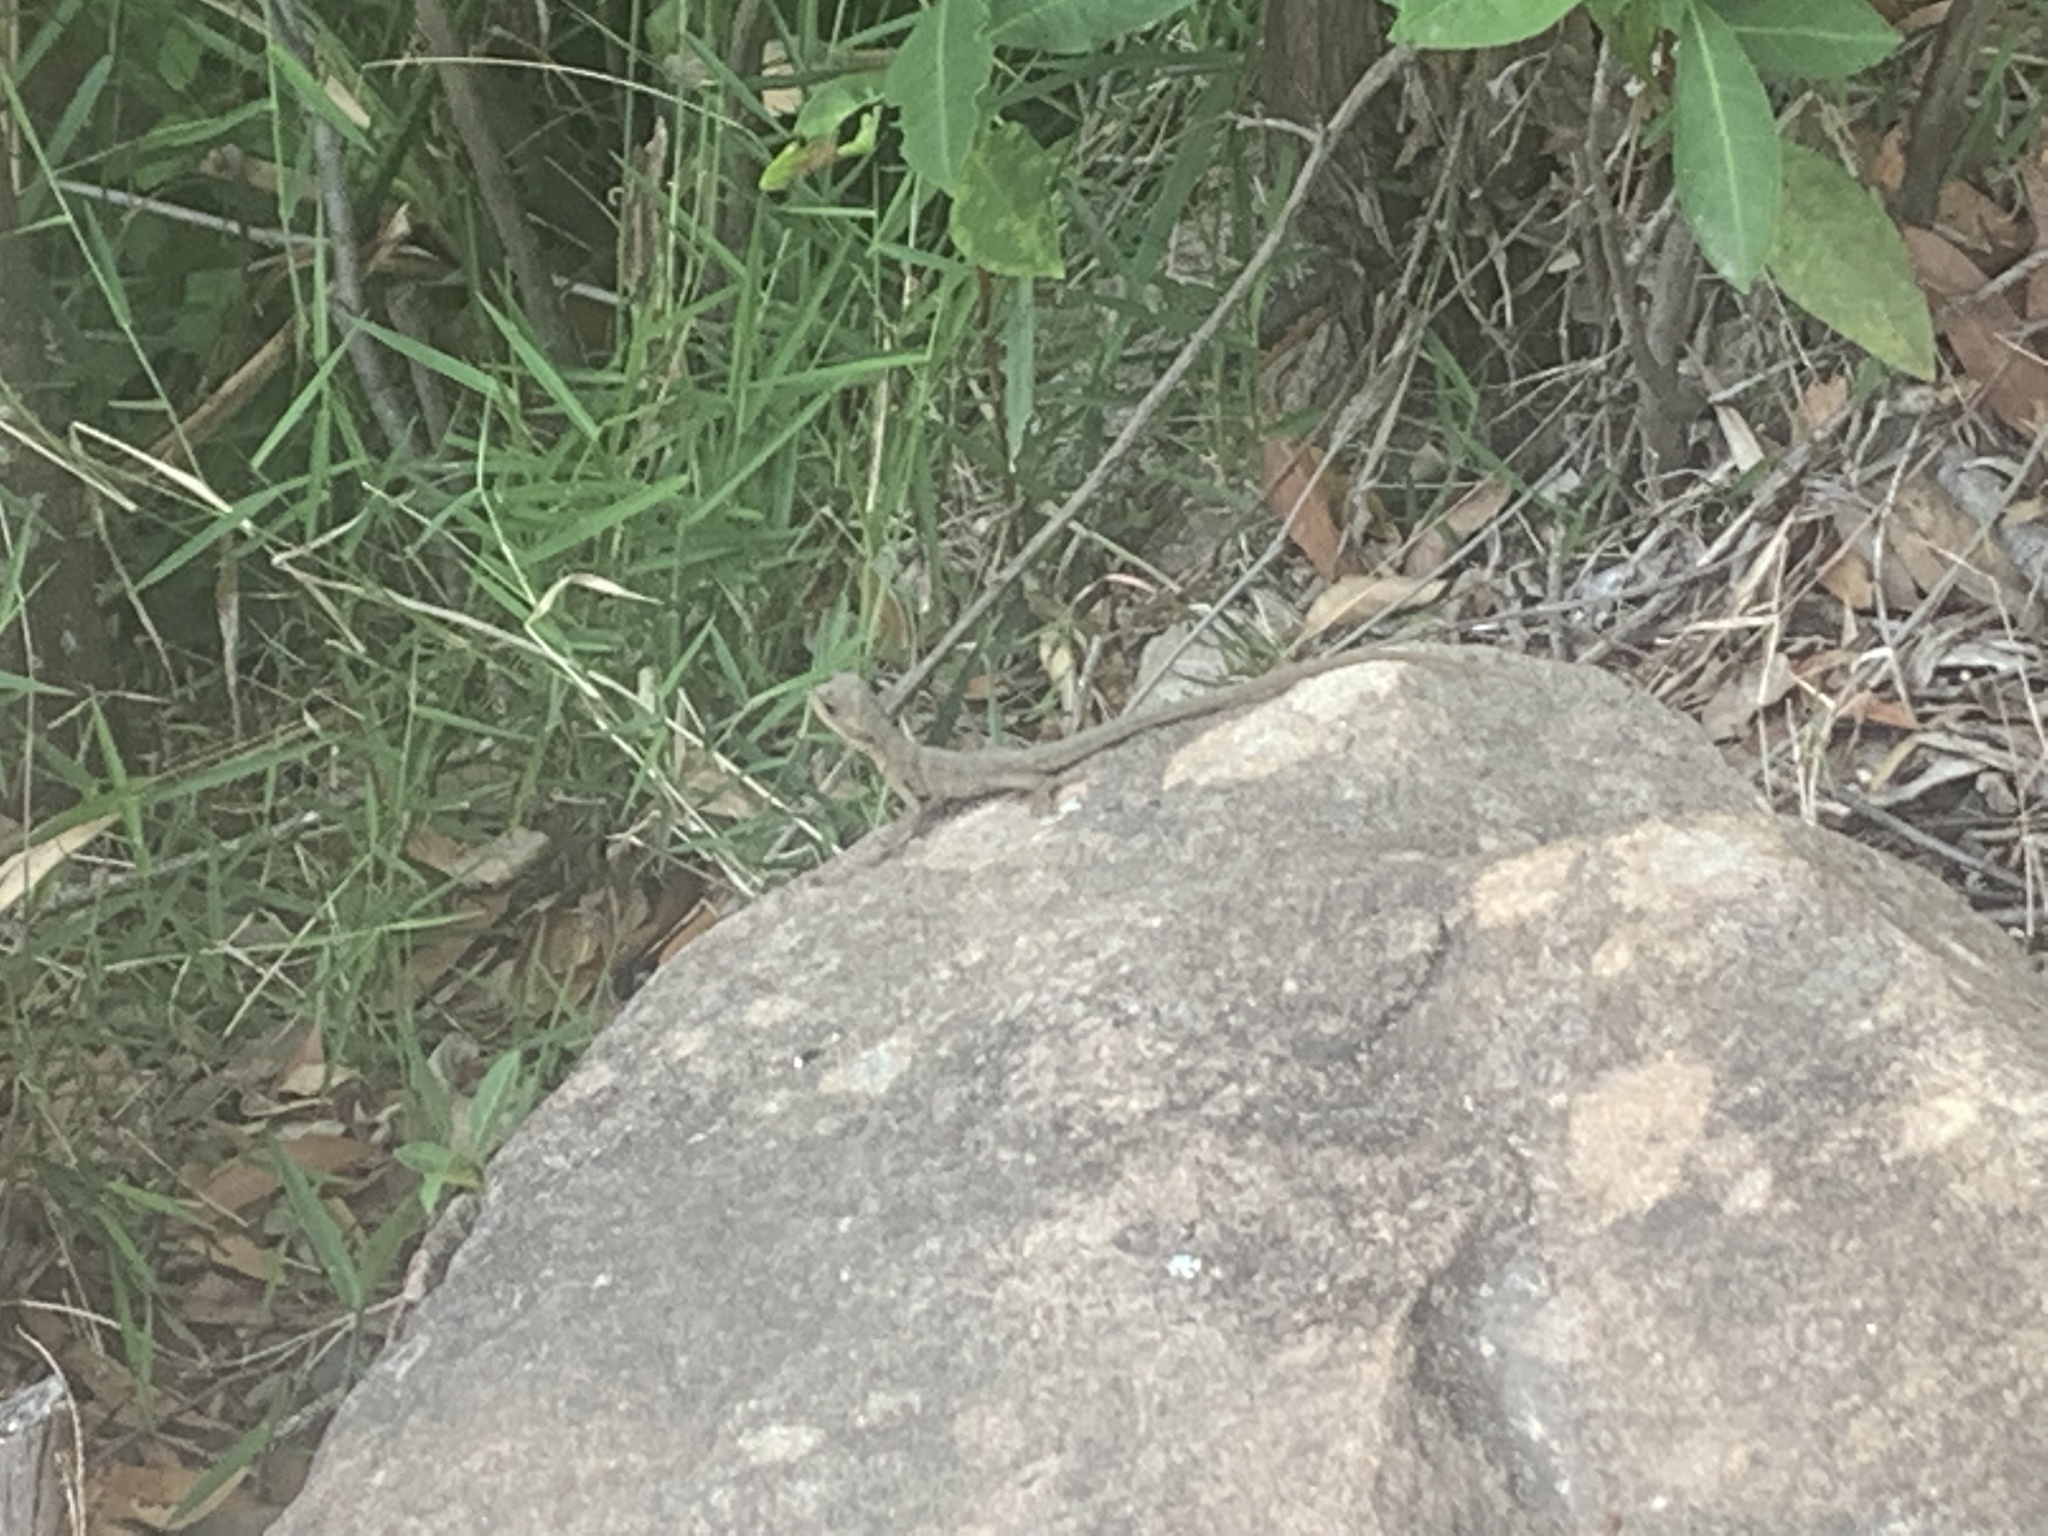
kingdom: Animalia
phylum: Chordata
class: Squamata
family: Agamidae
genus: Intellagama
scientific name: Intellagama lesueurii
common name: Eastern water dragon
